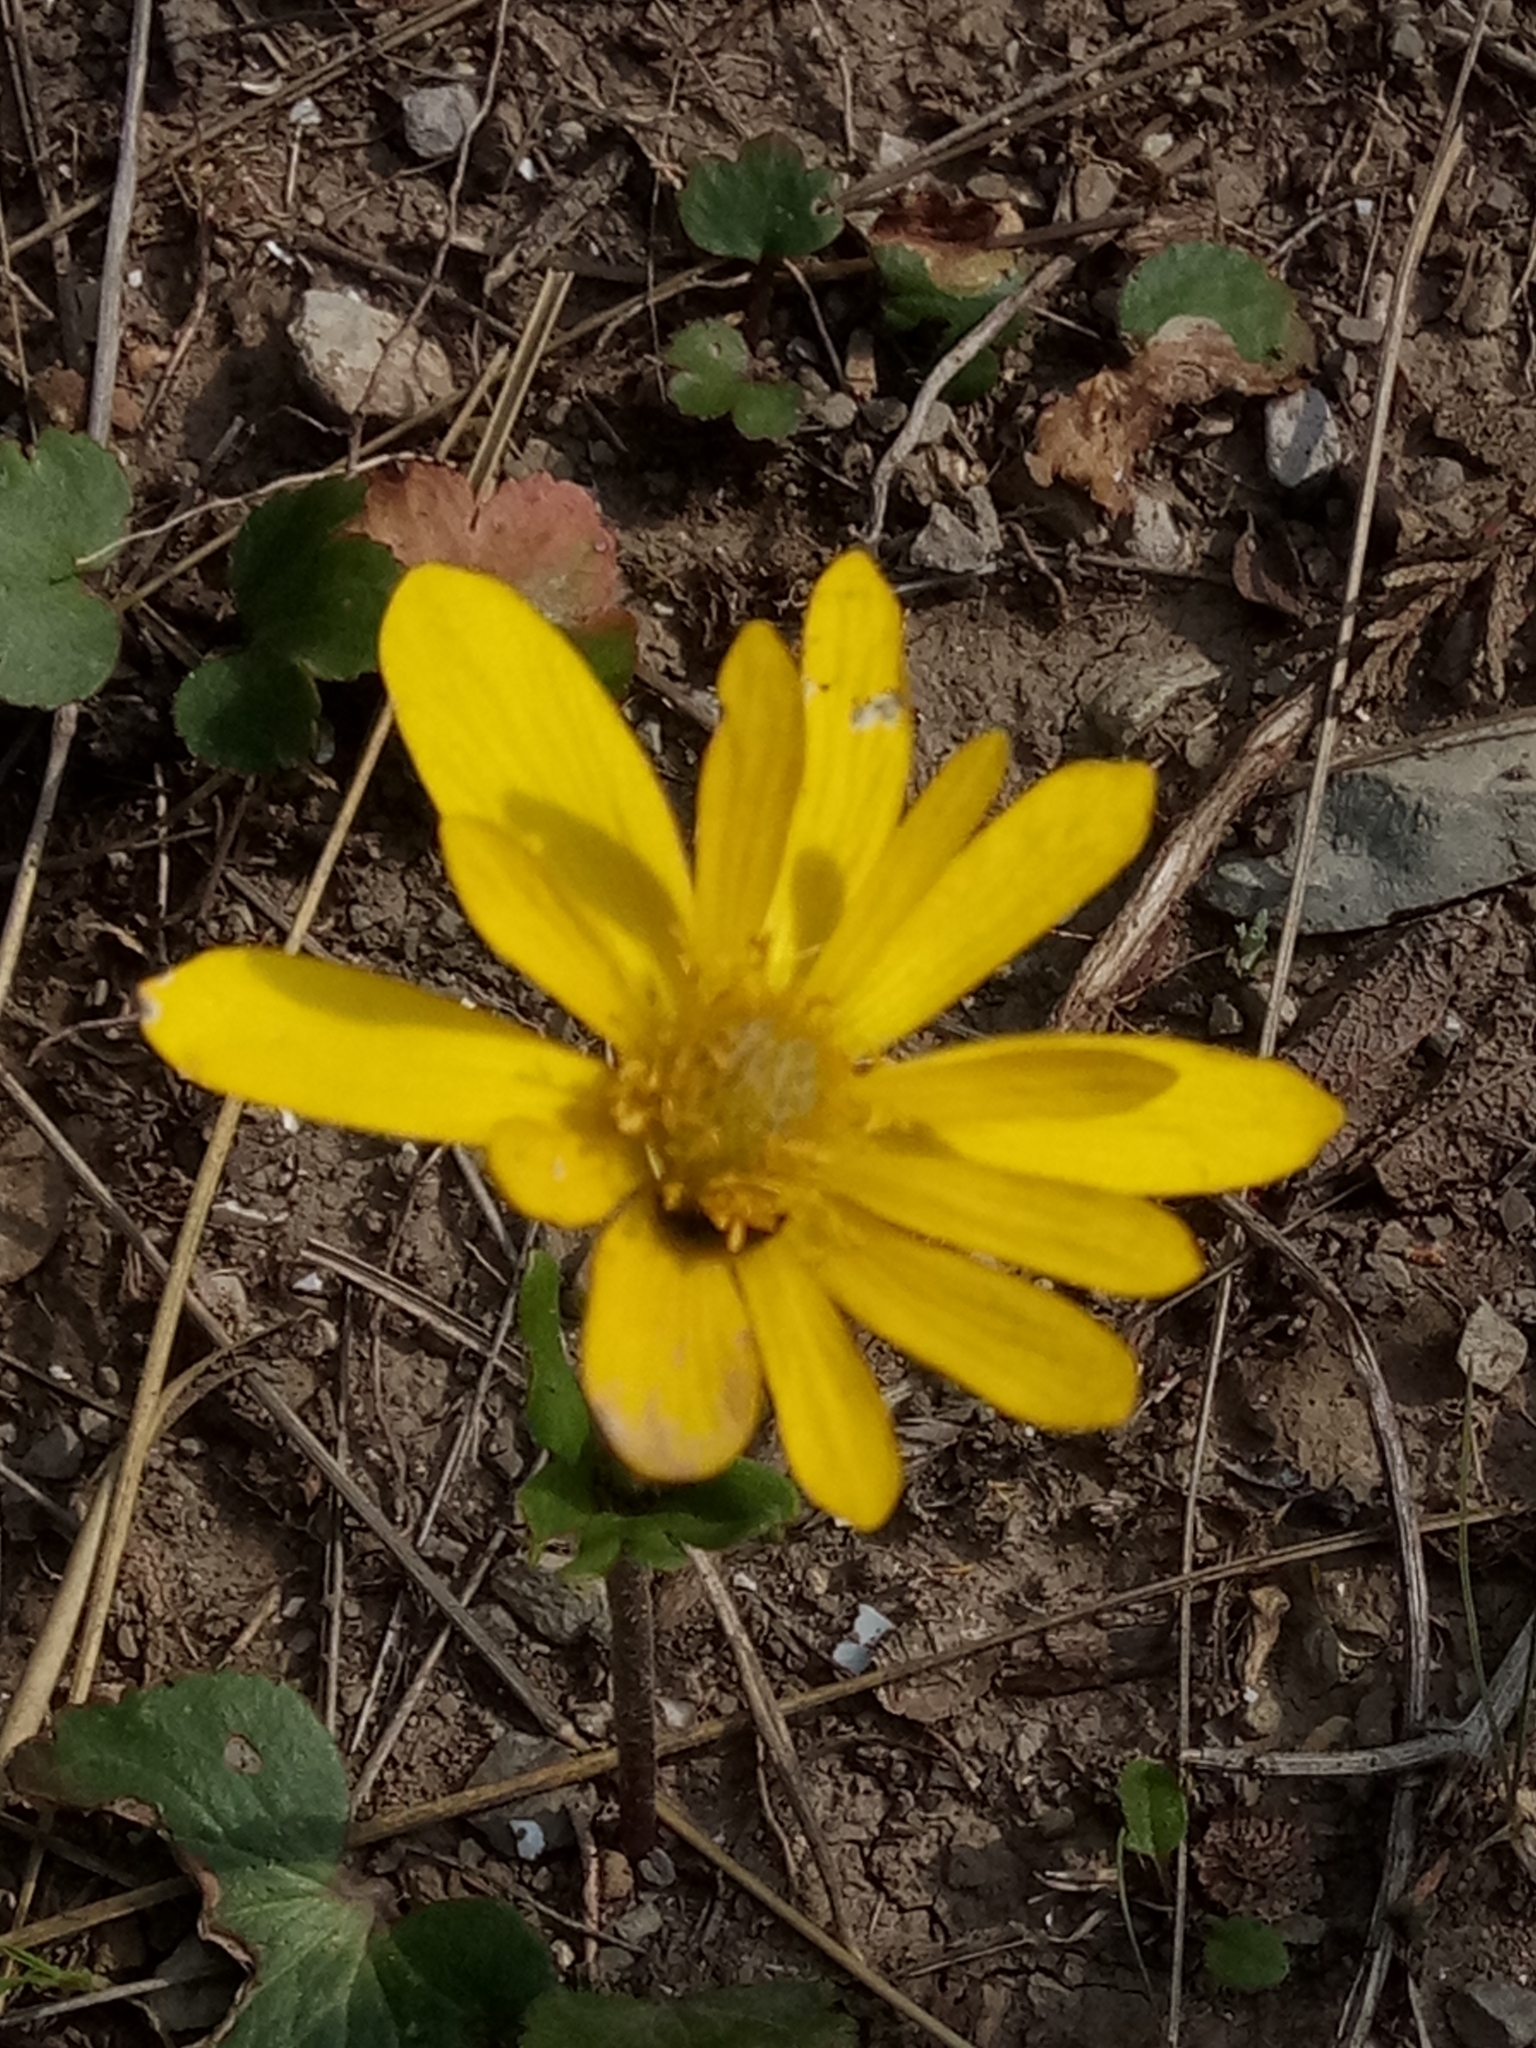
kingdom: Plantae
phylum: Tracheophyta
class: Magnoliopsida
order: Ranunculales
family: Ranunculaceae
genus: Anemone
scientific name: Anemone palmata
